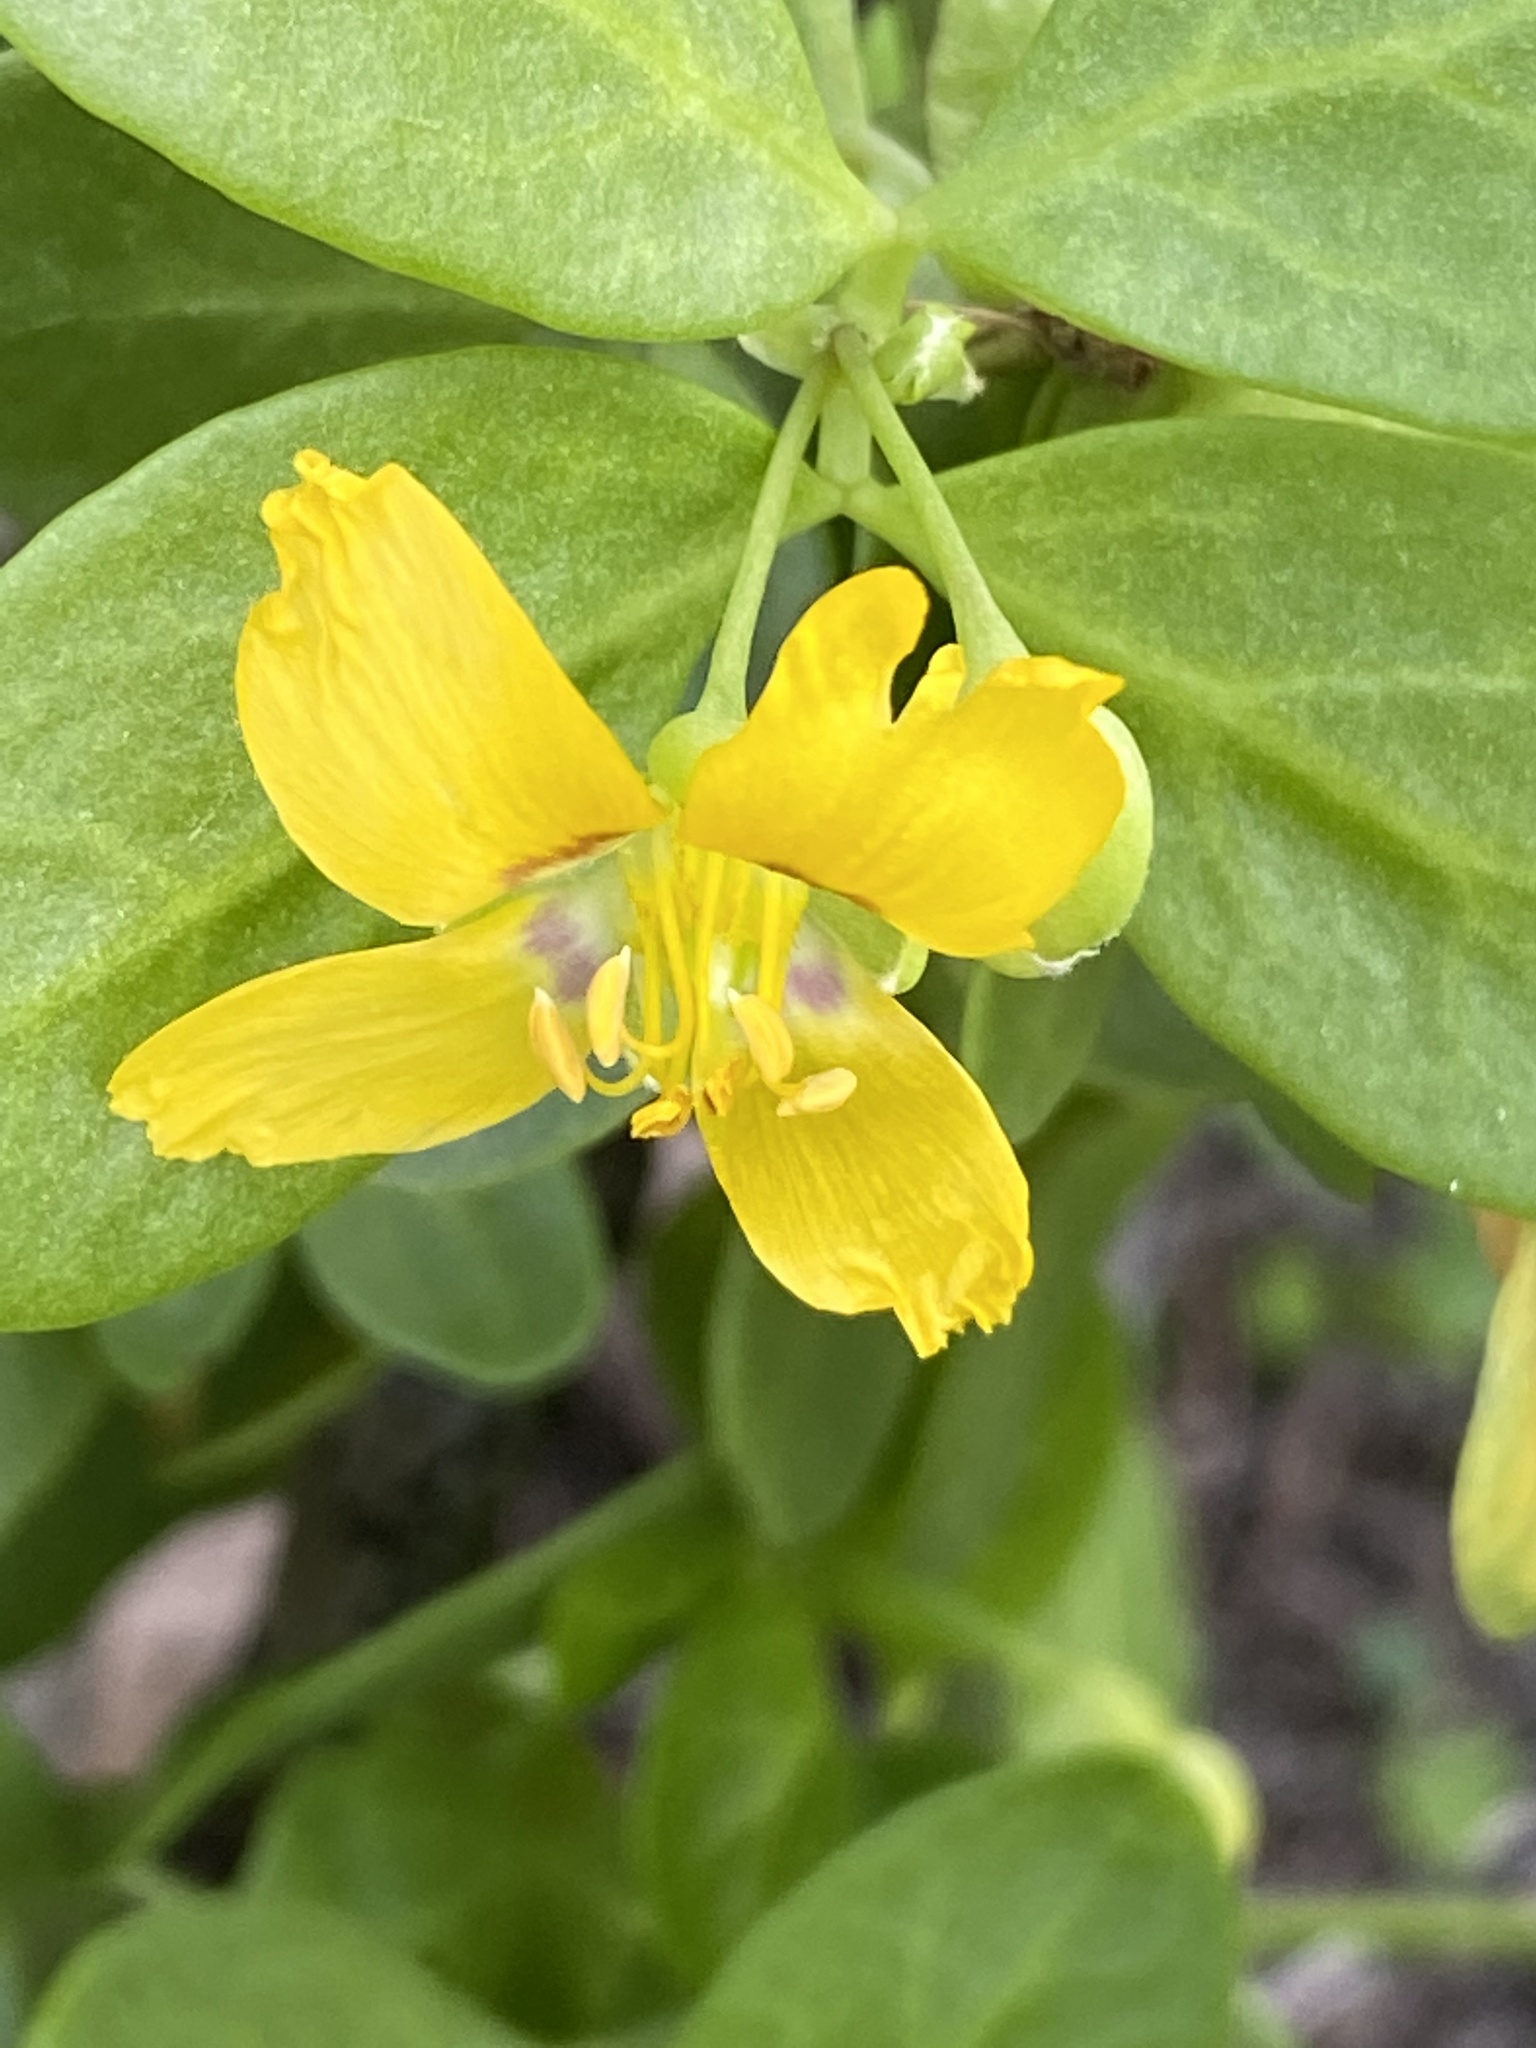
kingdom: Plantae
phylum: Tracheophyta
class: Magnoliopsida
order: Zygophyllales
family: Zygophyllaceae
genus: Roepera
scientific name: Roepera morgsana
